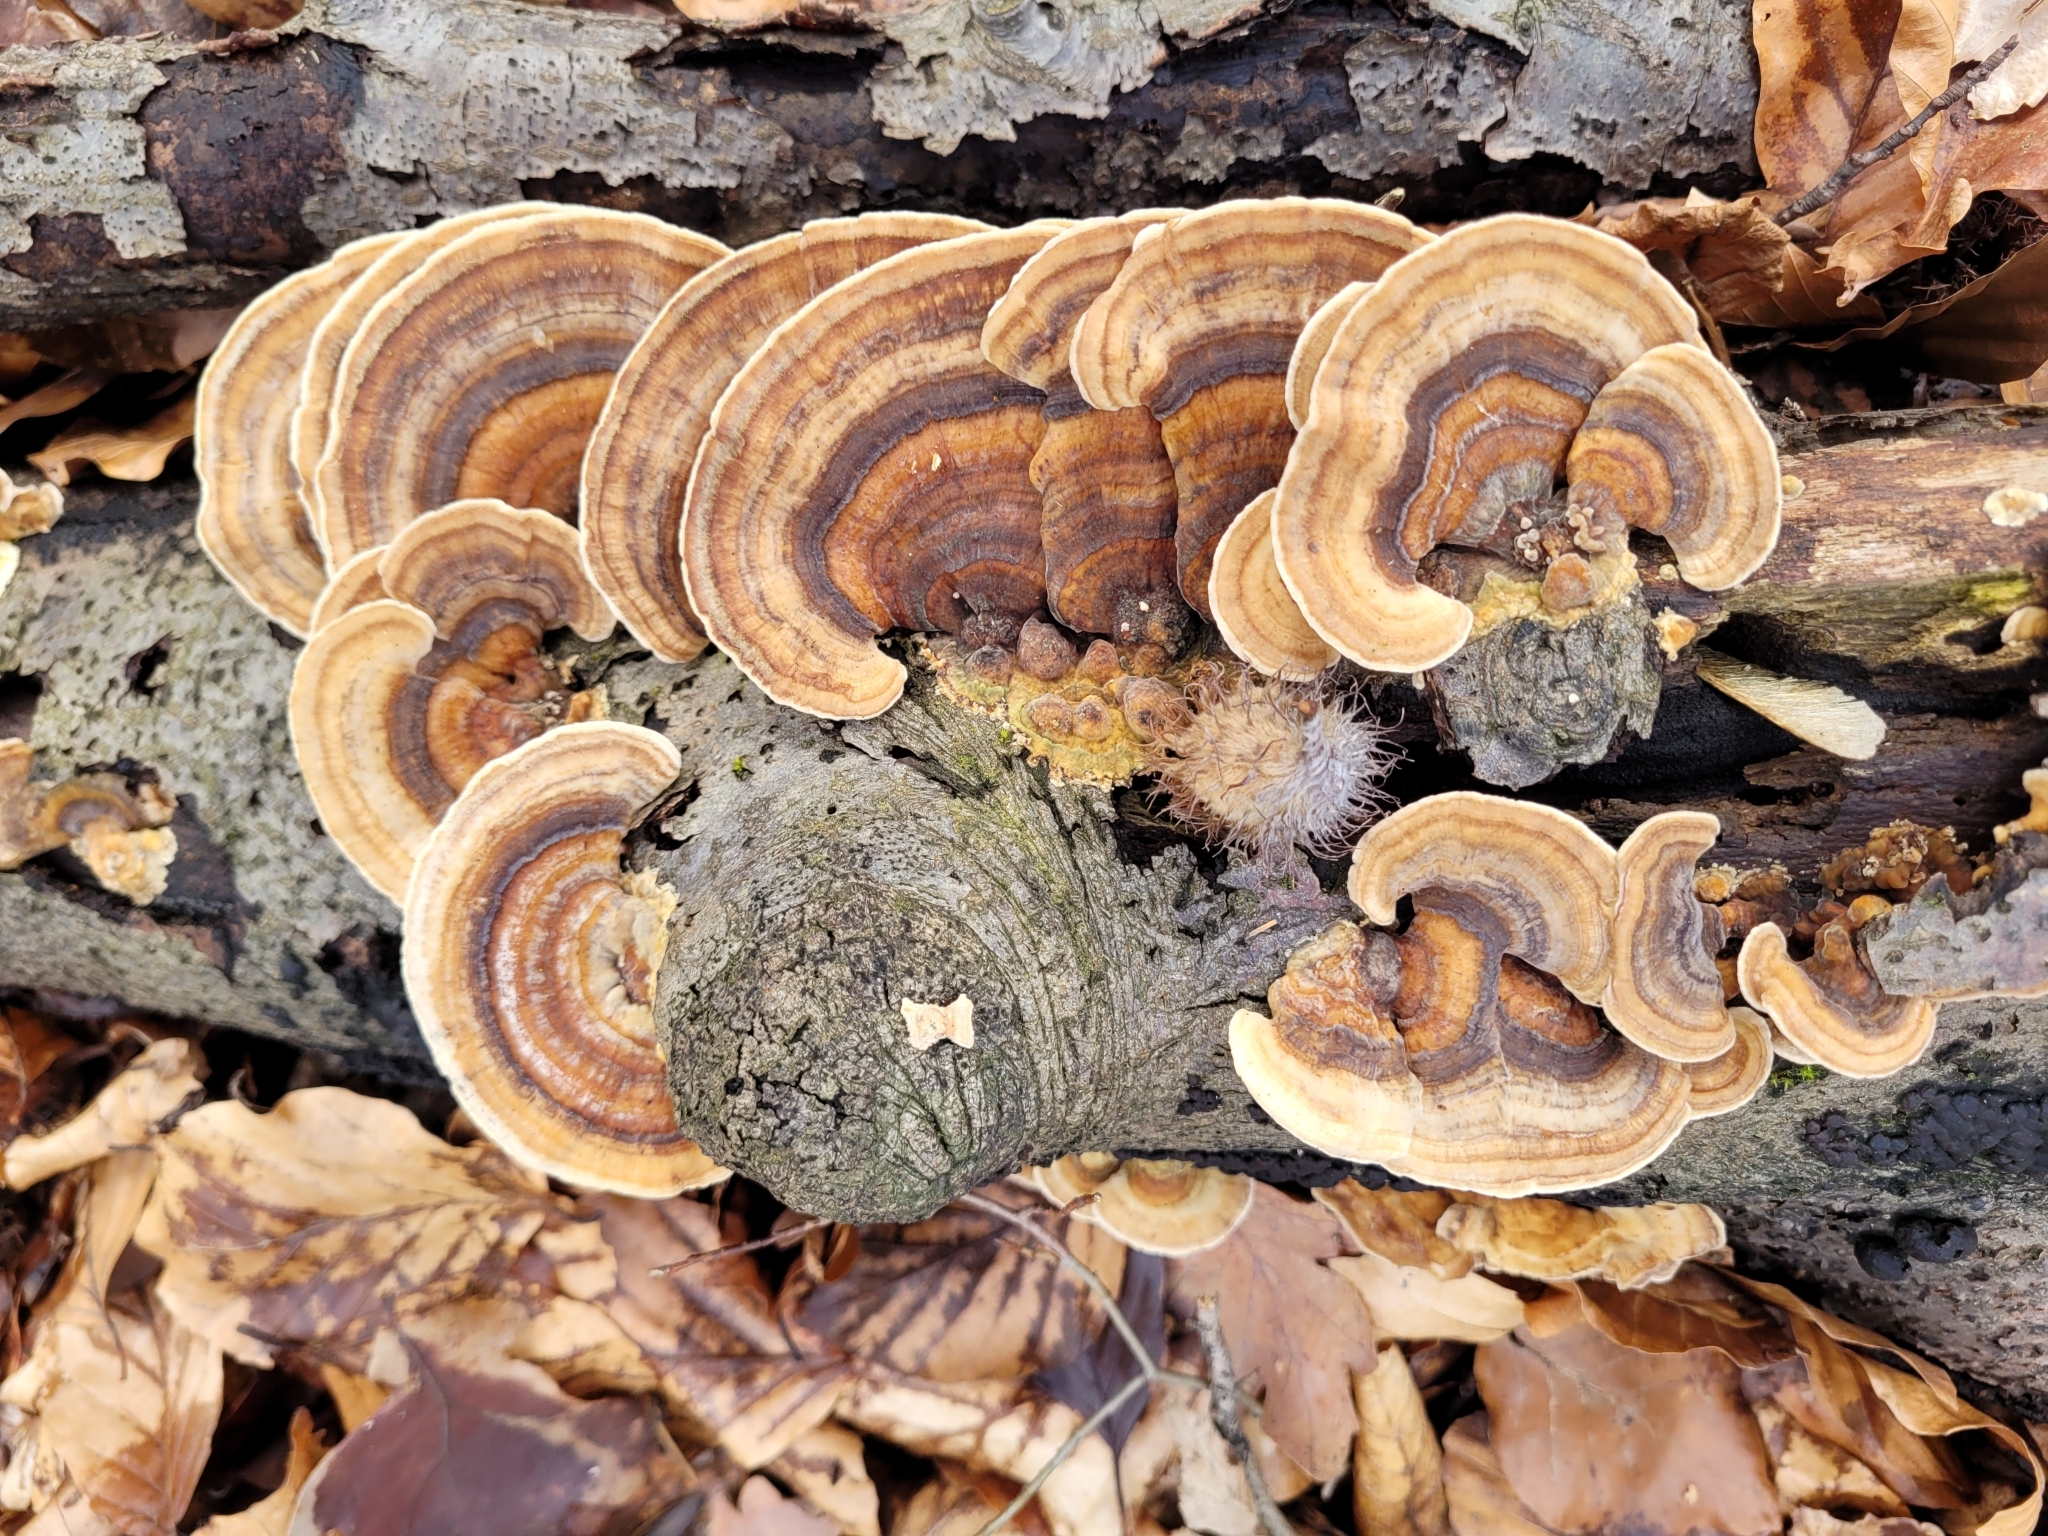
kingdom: Fungi
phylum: Basidiomycota
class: Agaricomycetes
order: Polyporales
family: Polyporaceae
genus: Trametes
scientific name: Trametes versicolor
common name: Turkeytail
